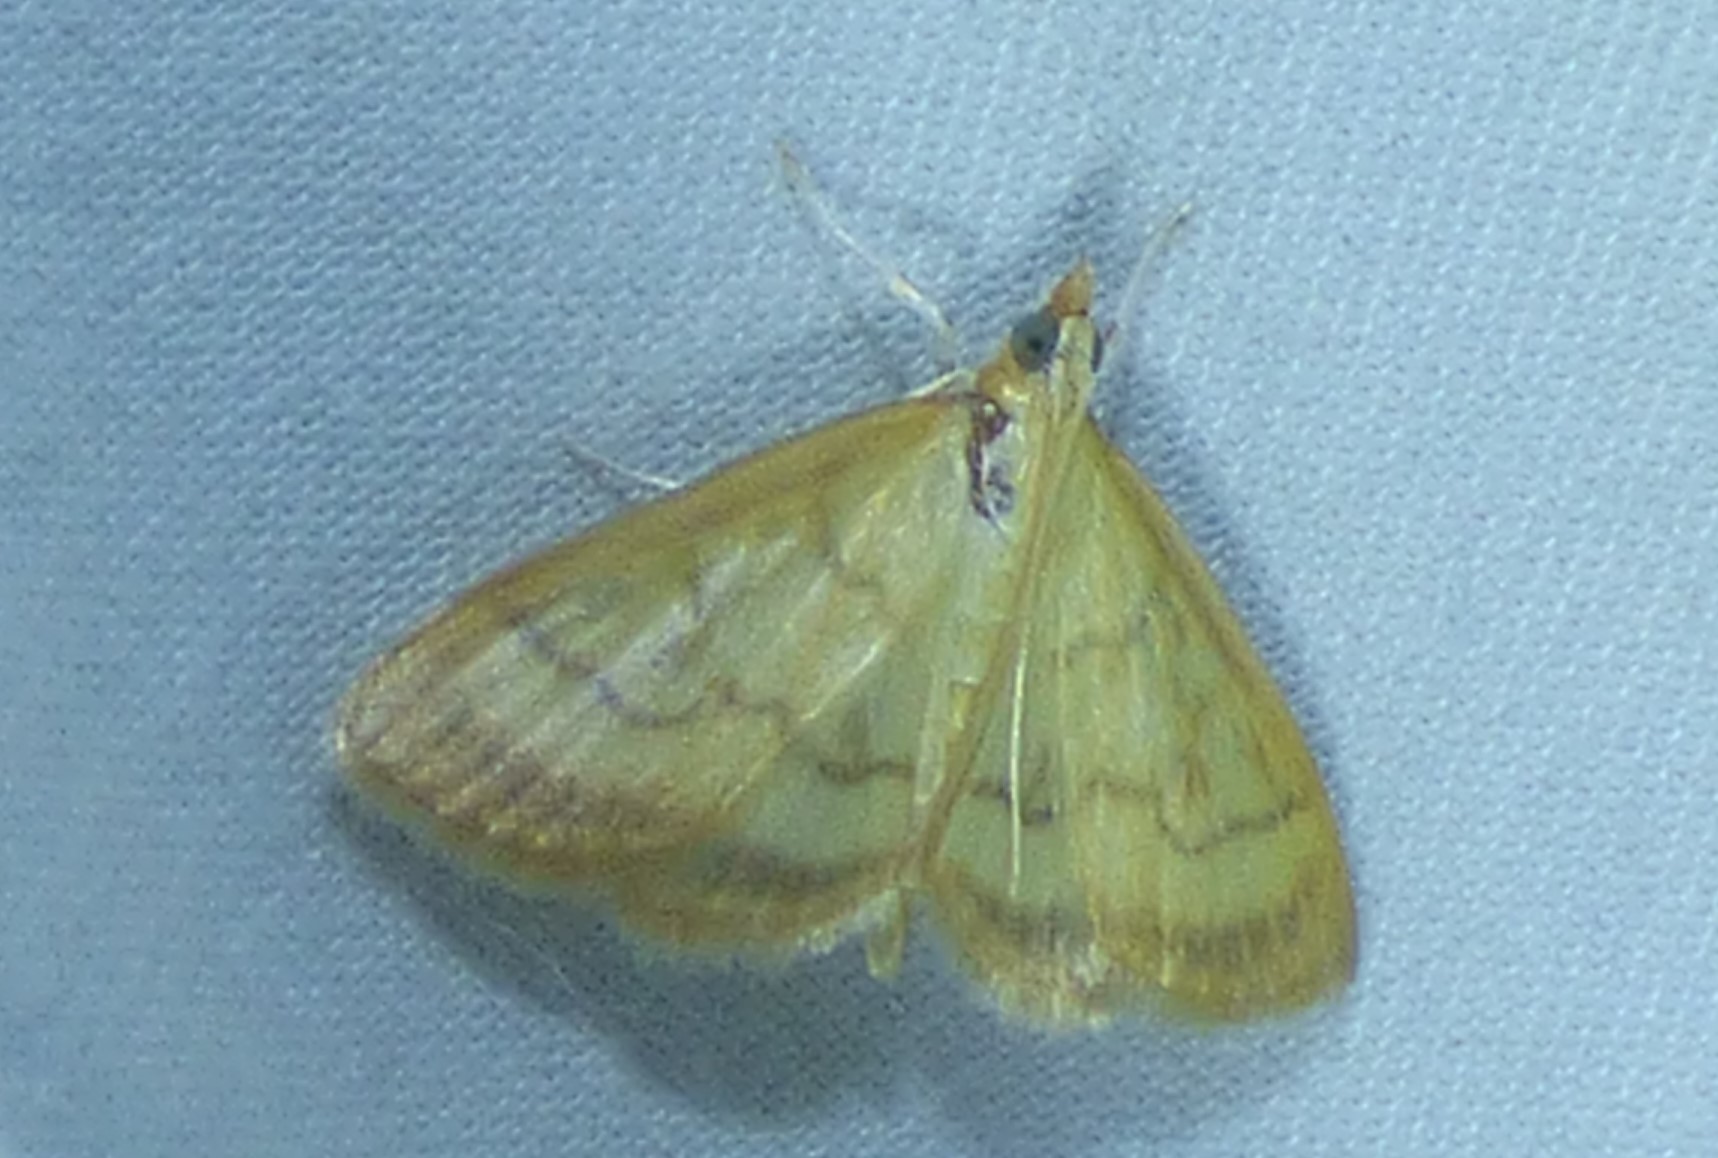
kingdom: Animalia
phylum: Arthropoda
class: Insecta
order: Lepidoptera
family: Crambidae
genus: Crocidophora
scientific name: Crocidophora tuberculalis
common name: Pale-winged crocidiphora moth
